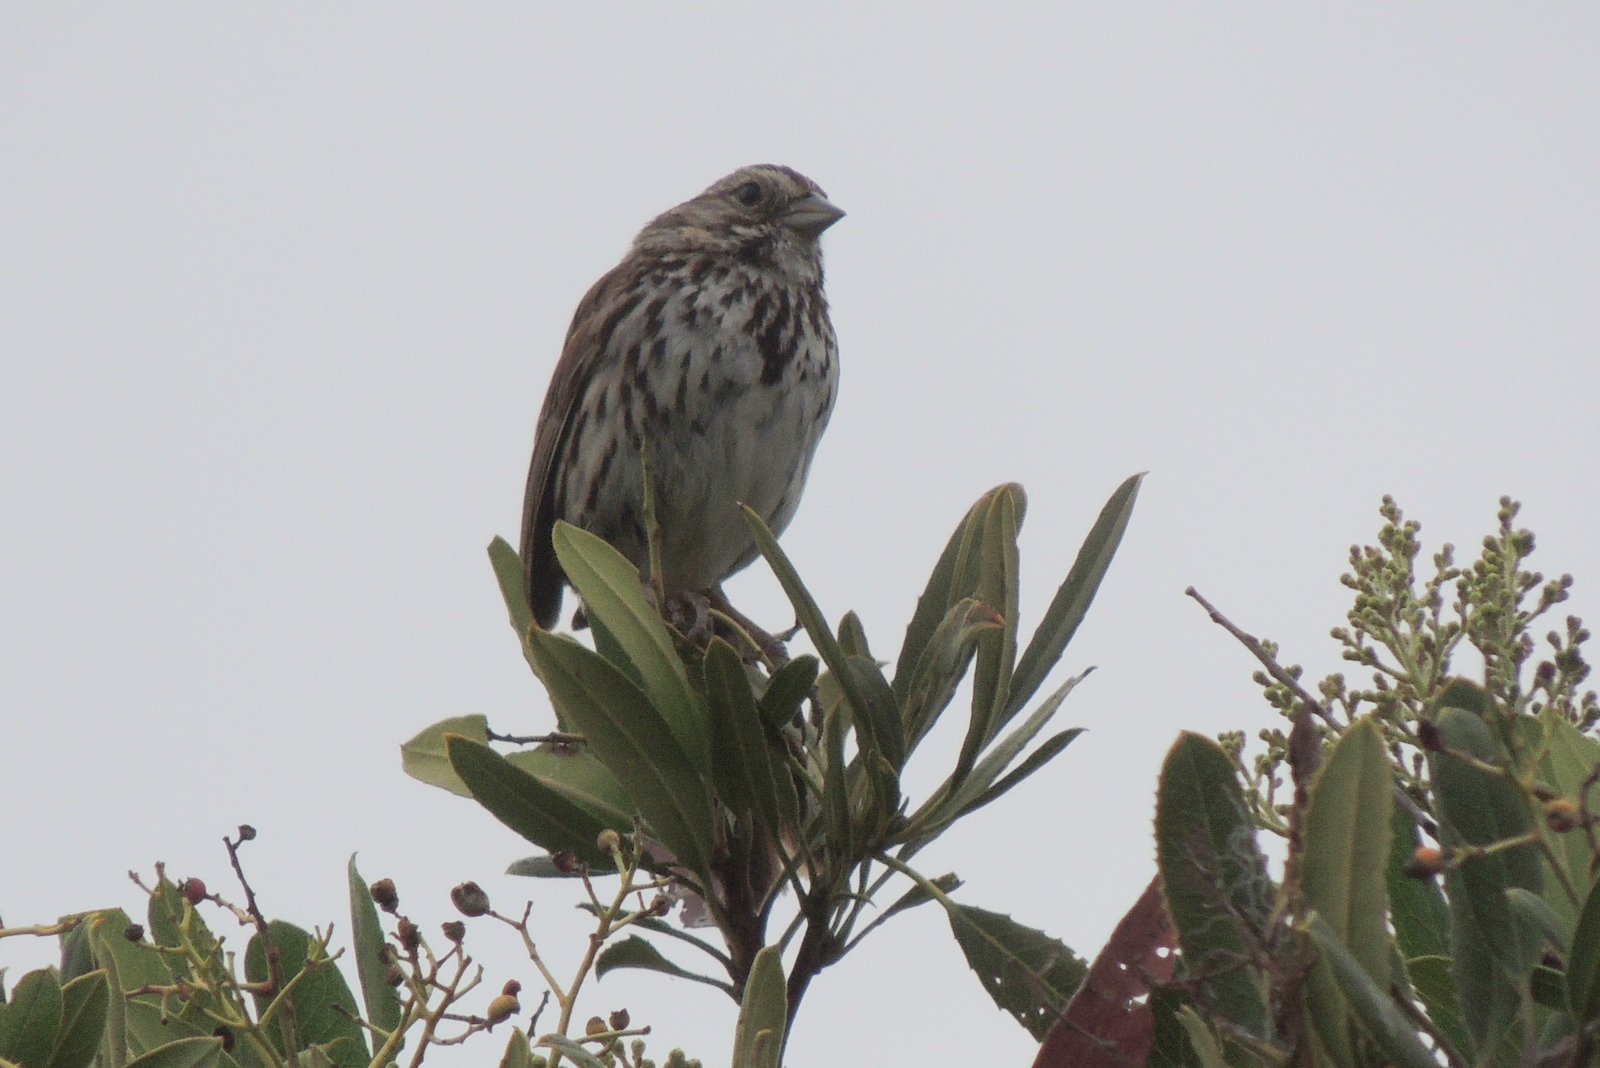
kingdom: Animalia
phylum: Chordata
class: Aves
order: Passeriformes
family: Passerellidae
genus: Melospiza
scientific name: Melospiza melodia
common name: Song sparrow
